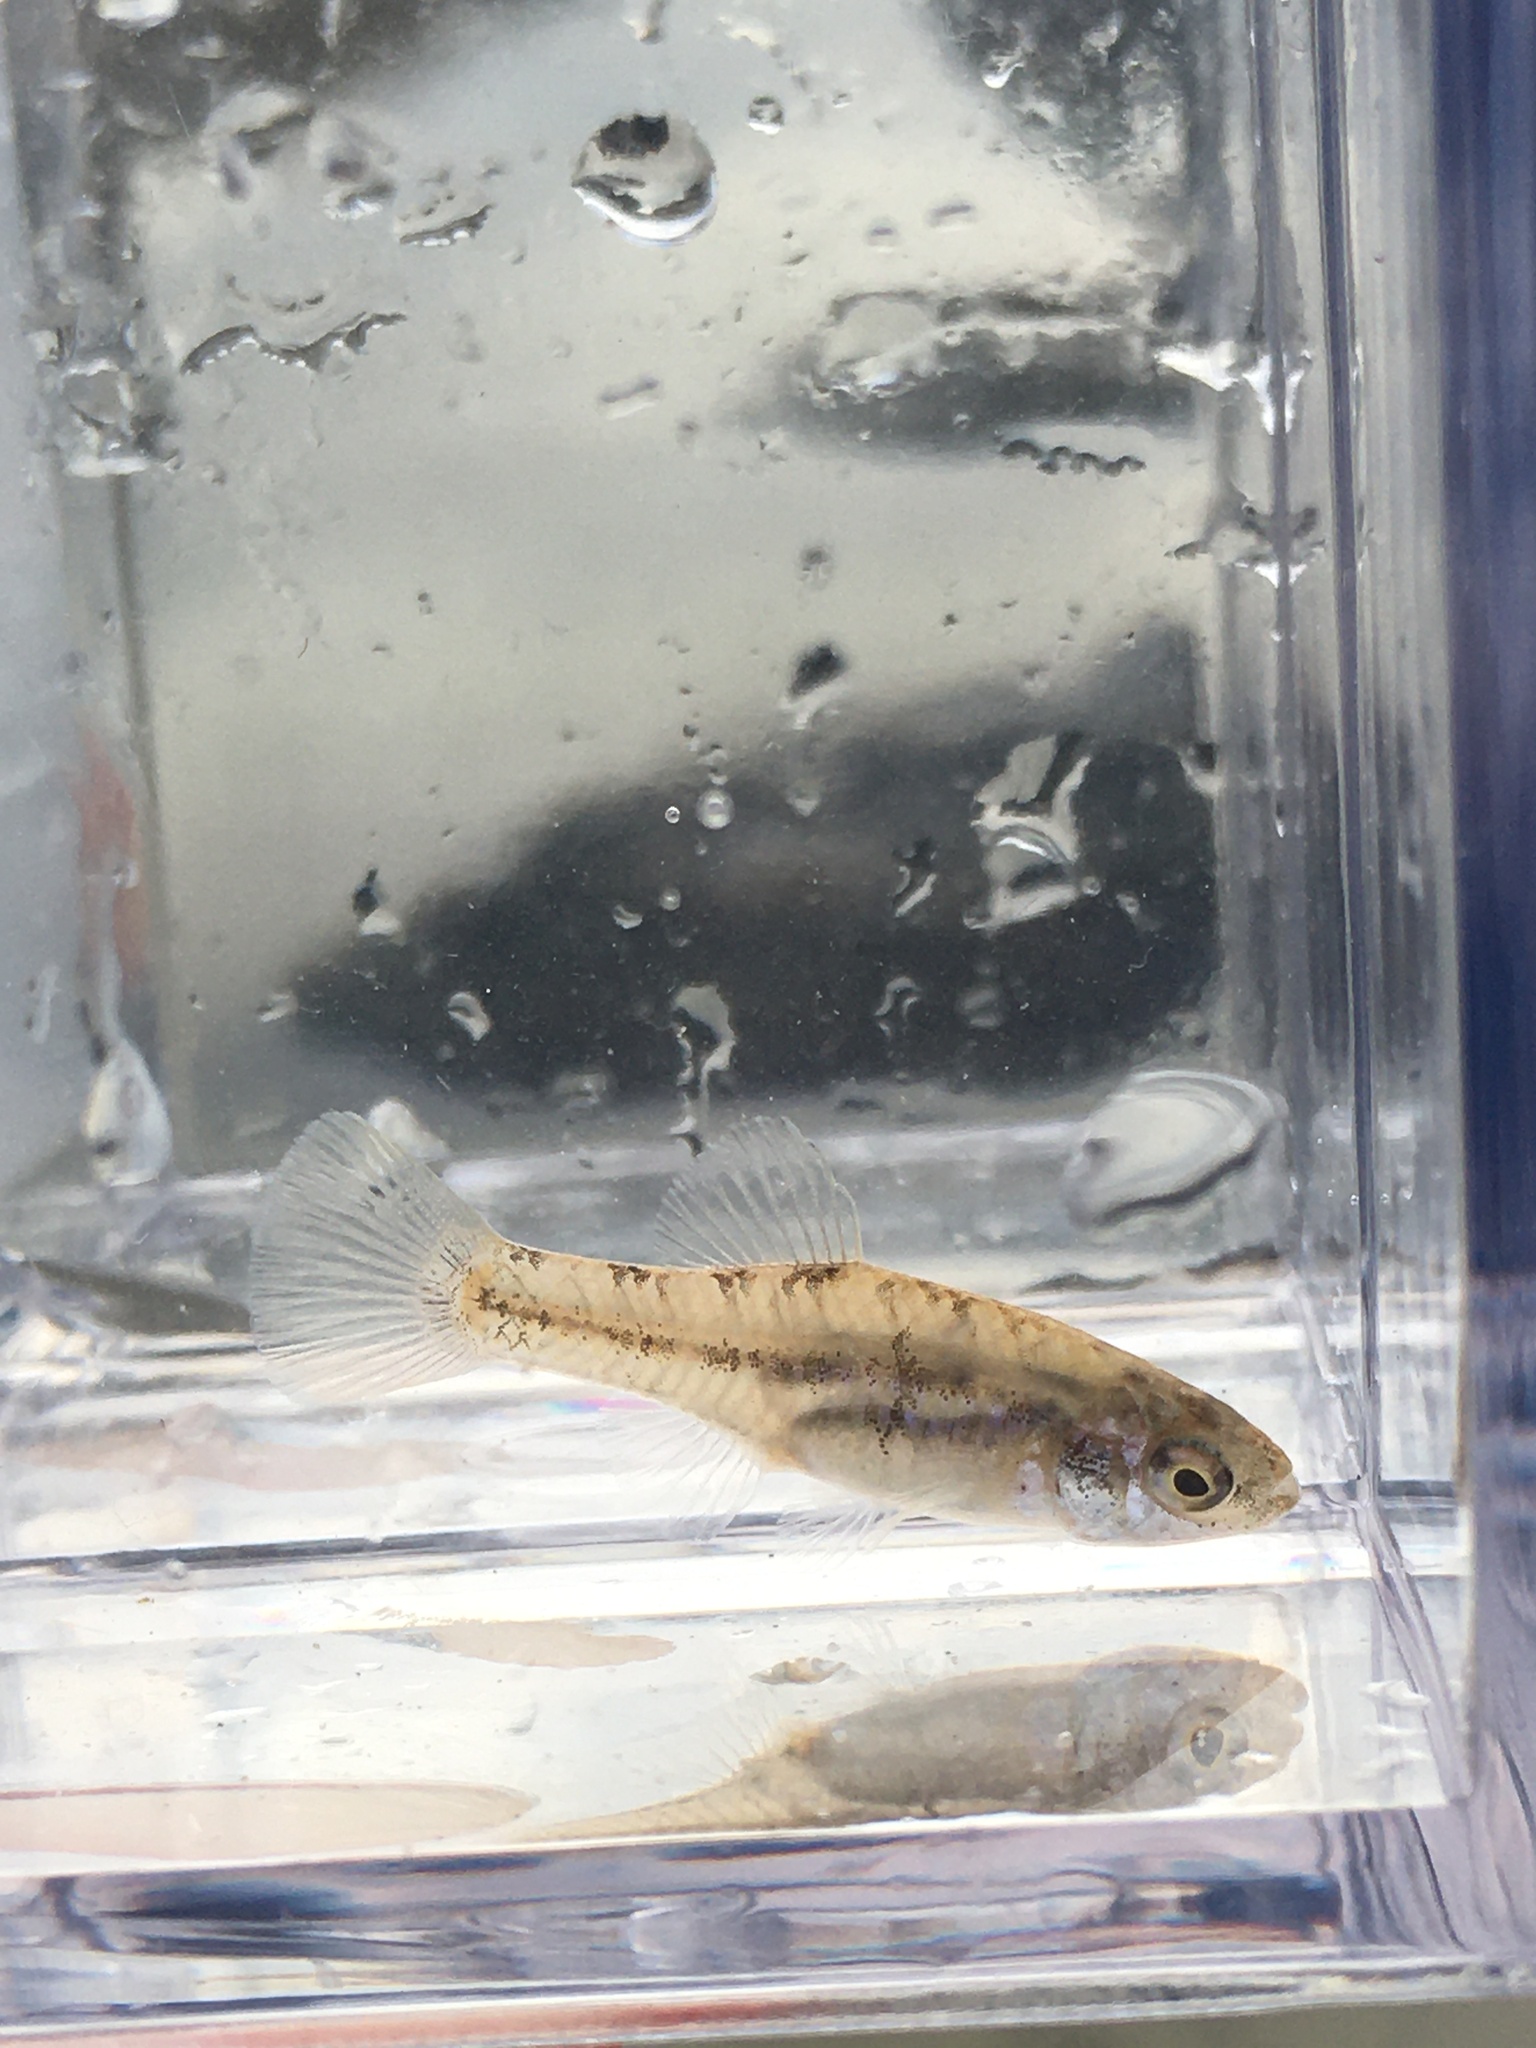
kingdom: Animalia
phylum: Chordata
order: Cyprinodontiformes
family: Fundulidae
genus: Lucania
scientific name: Lucania parva
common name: Rainwater killifish
